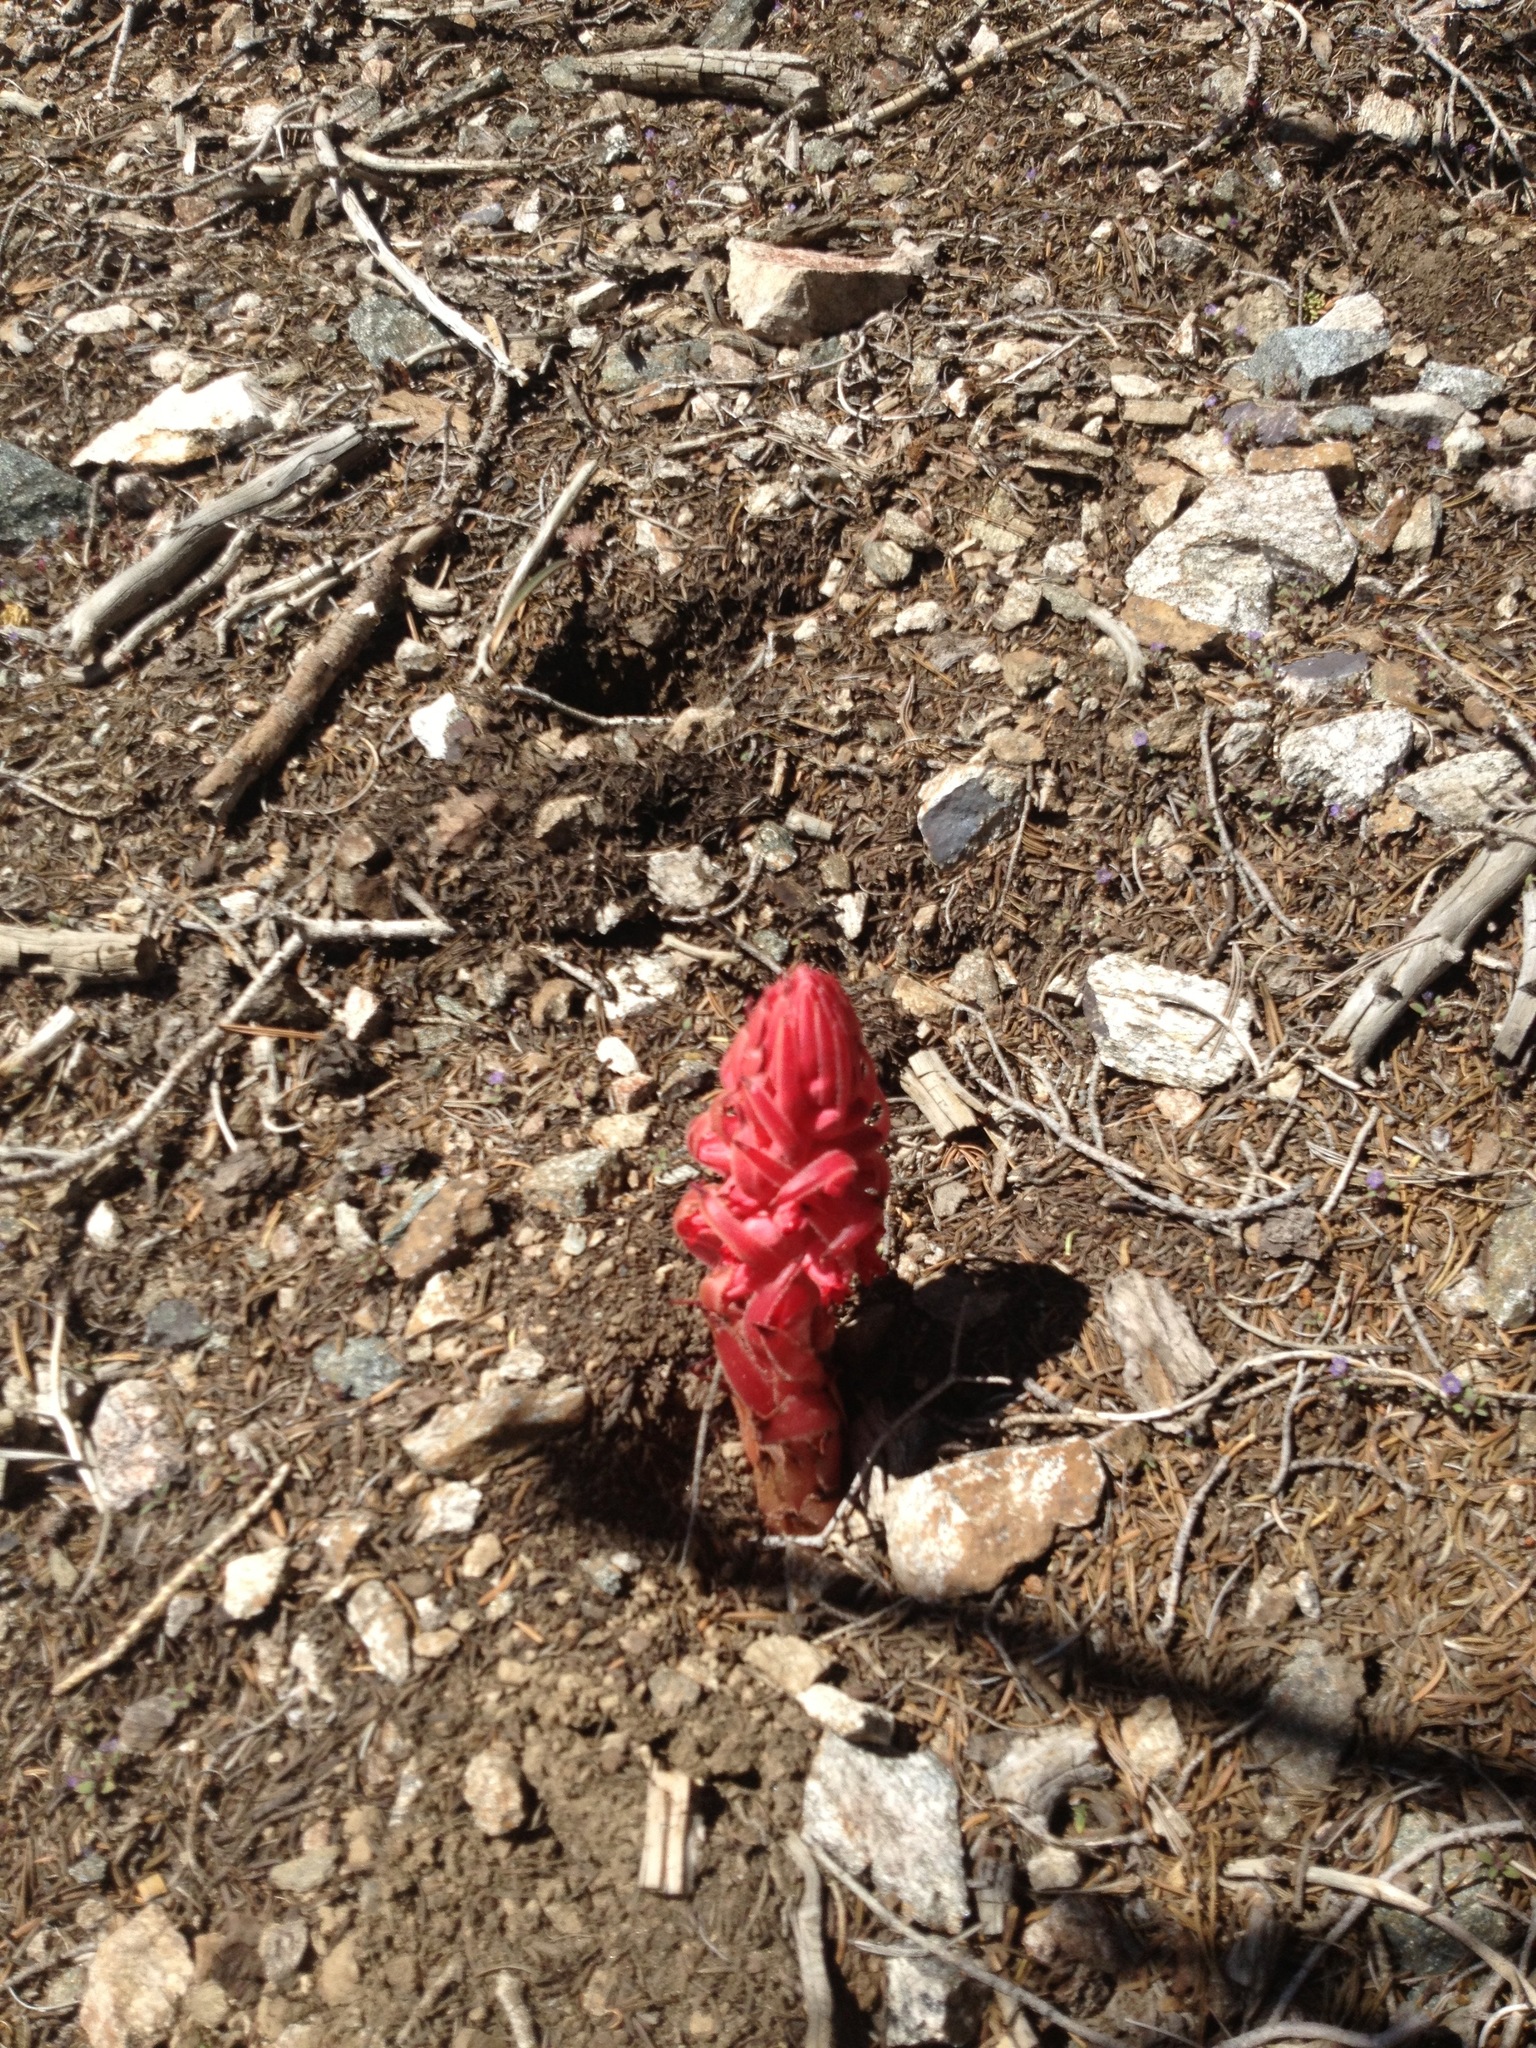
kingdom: Plantae
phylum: Tracheophyta
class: Magnoliopsida
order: Ericales
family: Ericaceae
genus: Sarcodes
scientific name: Sarcodes sanguinea
